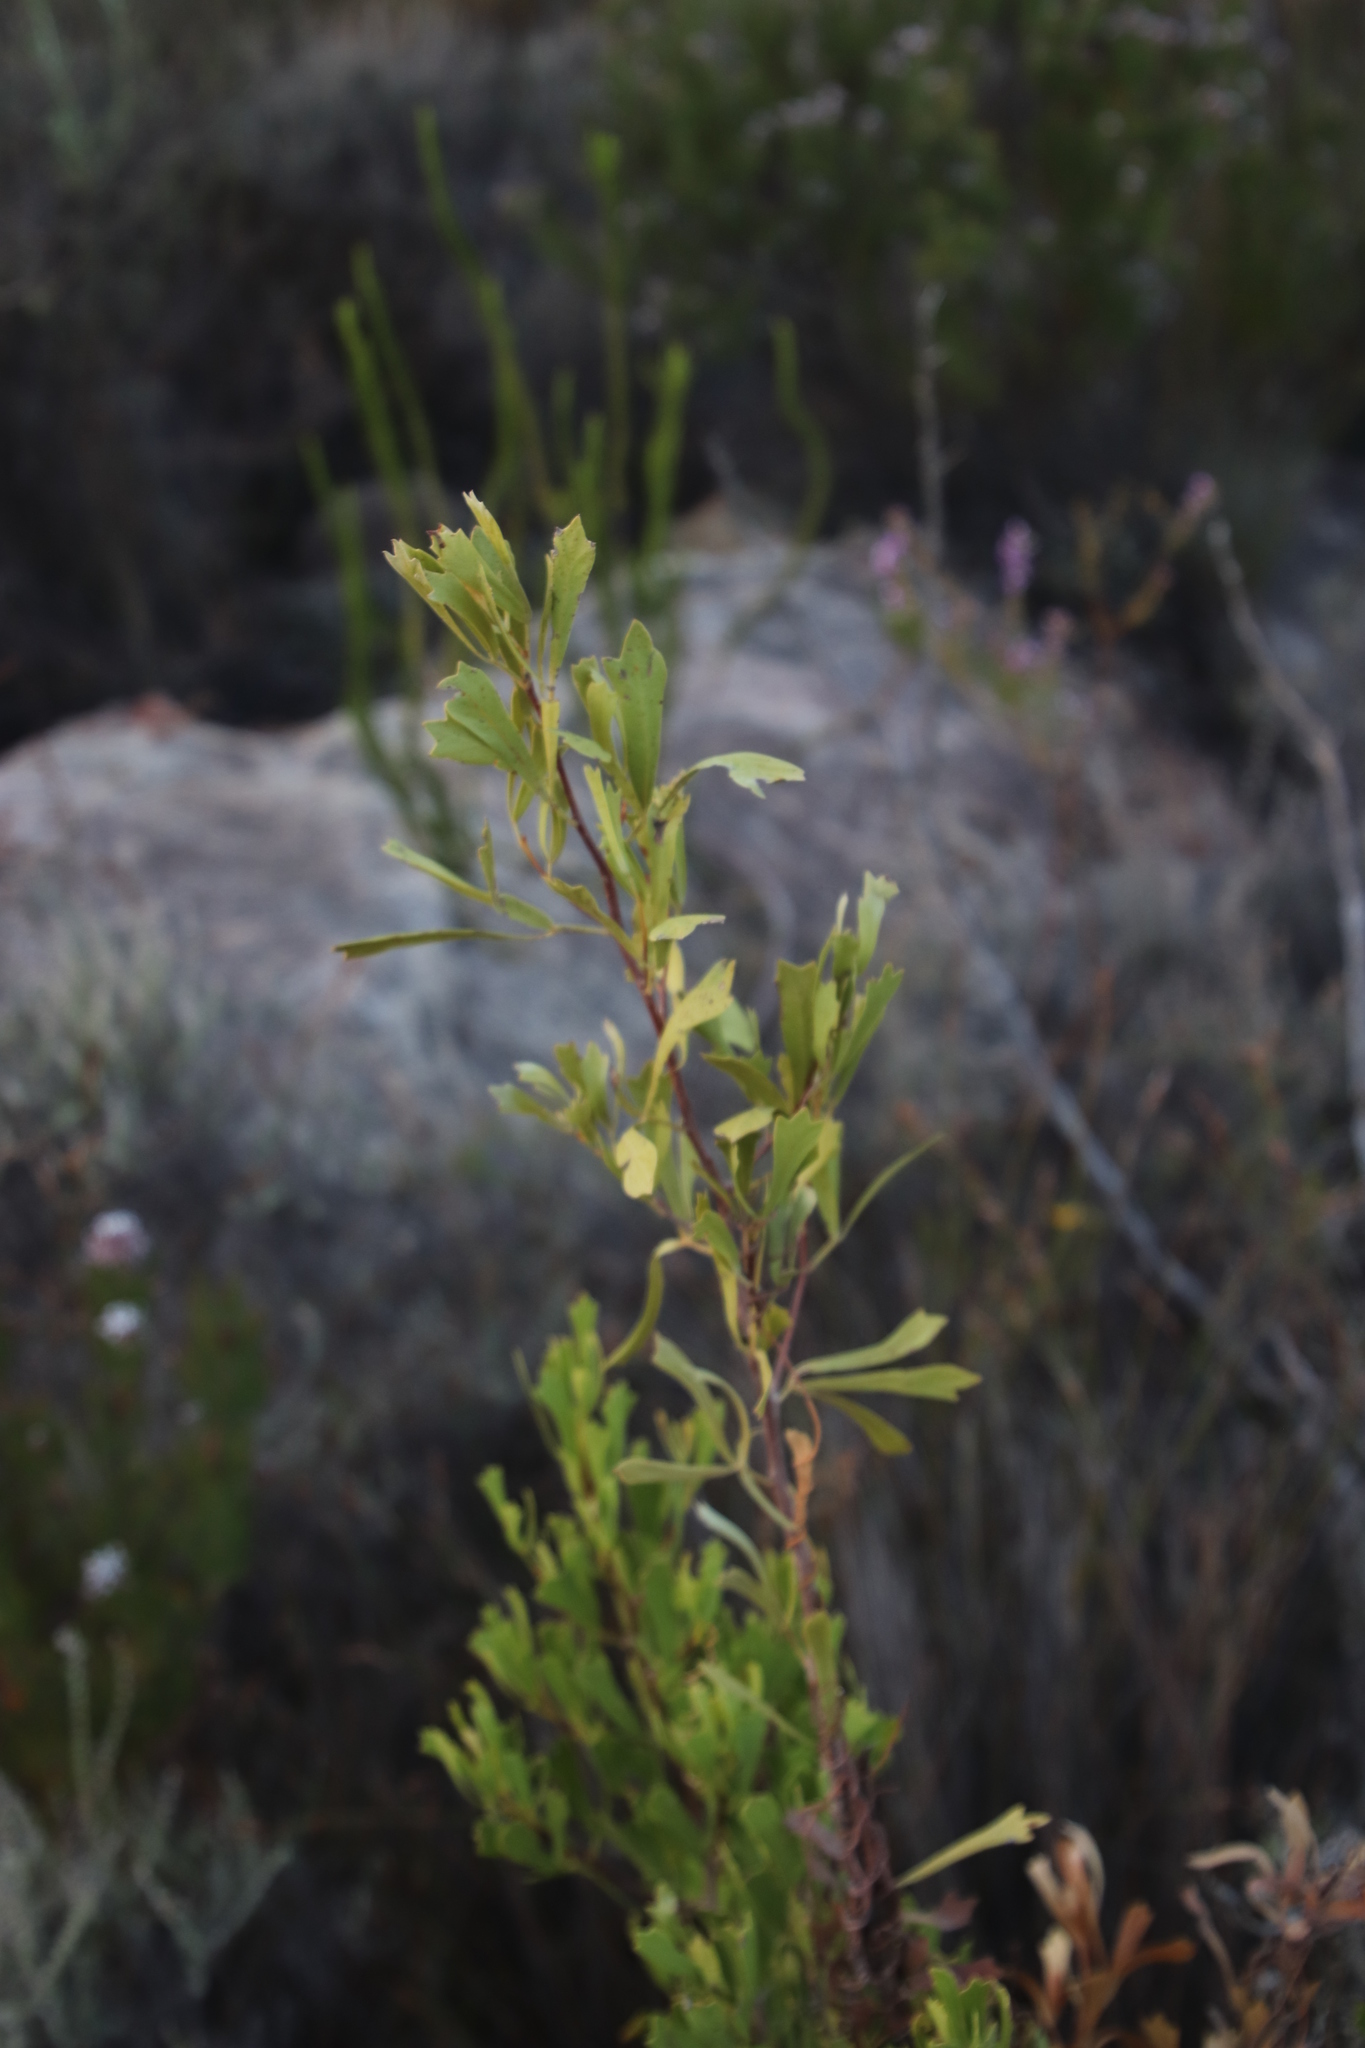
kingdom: Plantae
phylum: Tracheophyta
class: Magnoliopsida
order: Sapindales
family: Anacardiaceae
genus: Searsia
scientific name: Searsia rimosa
